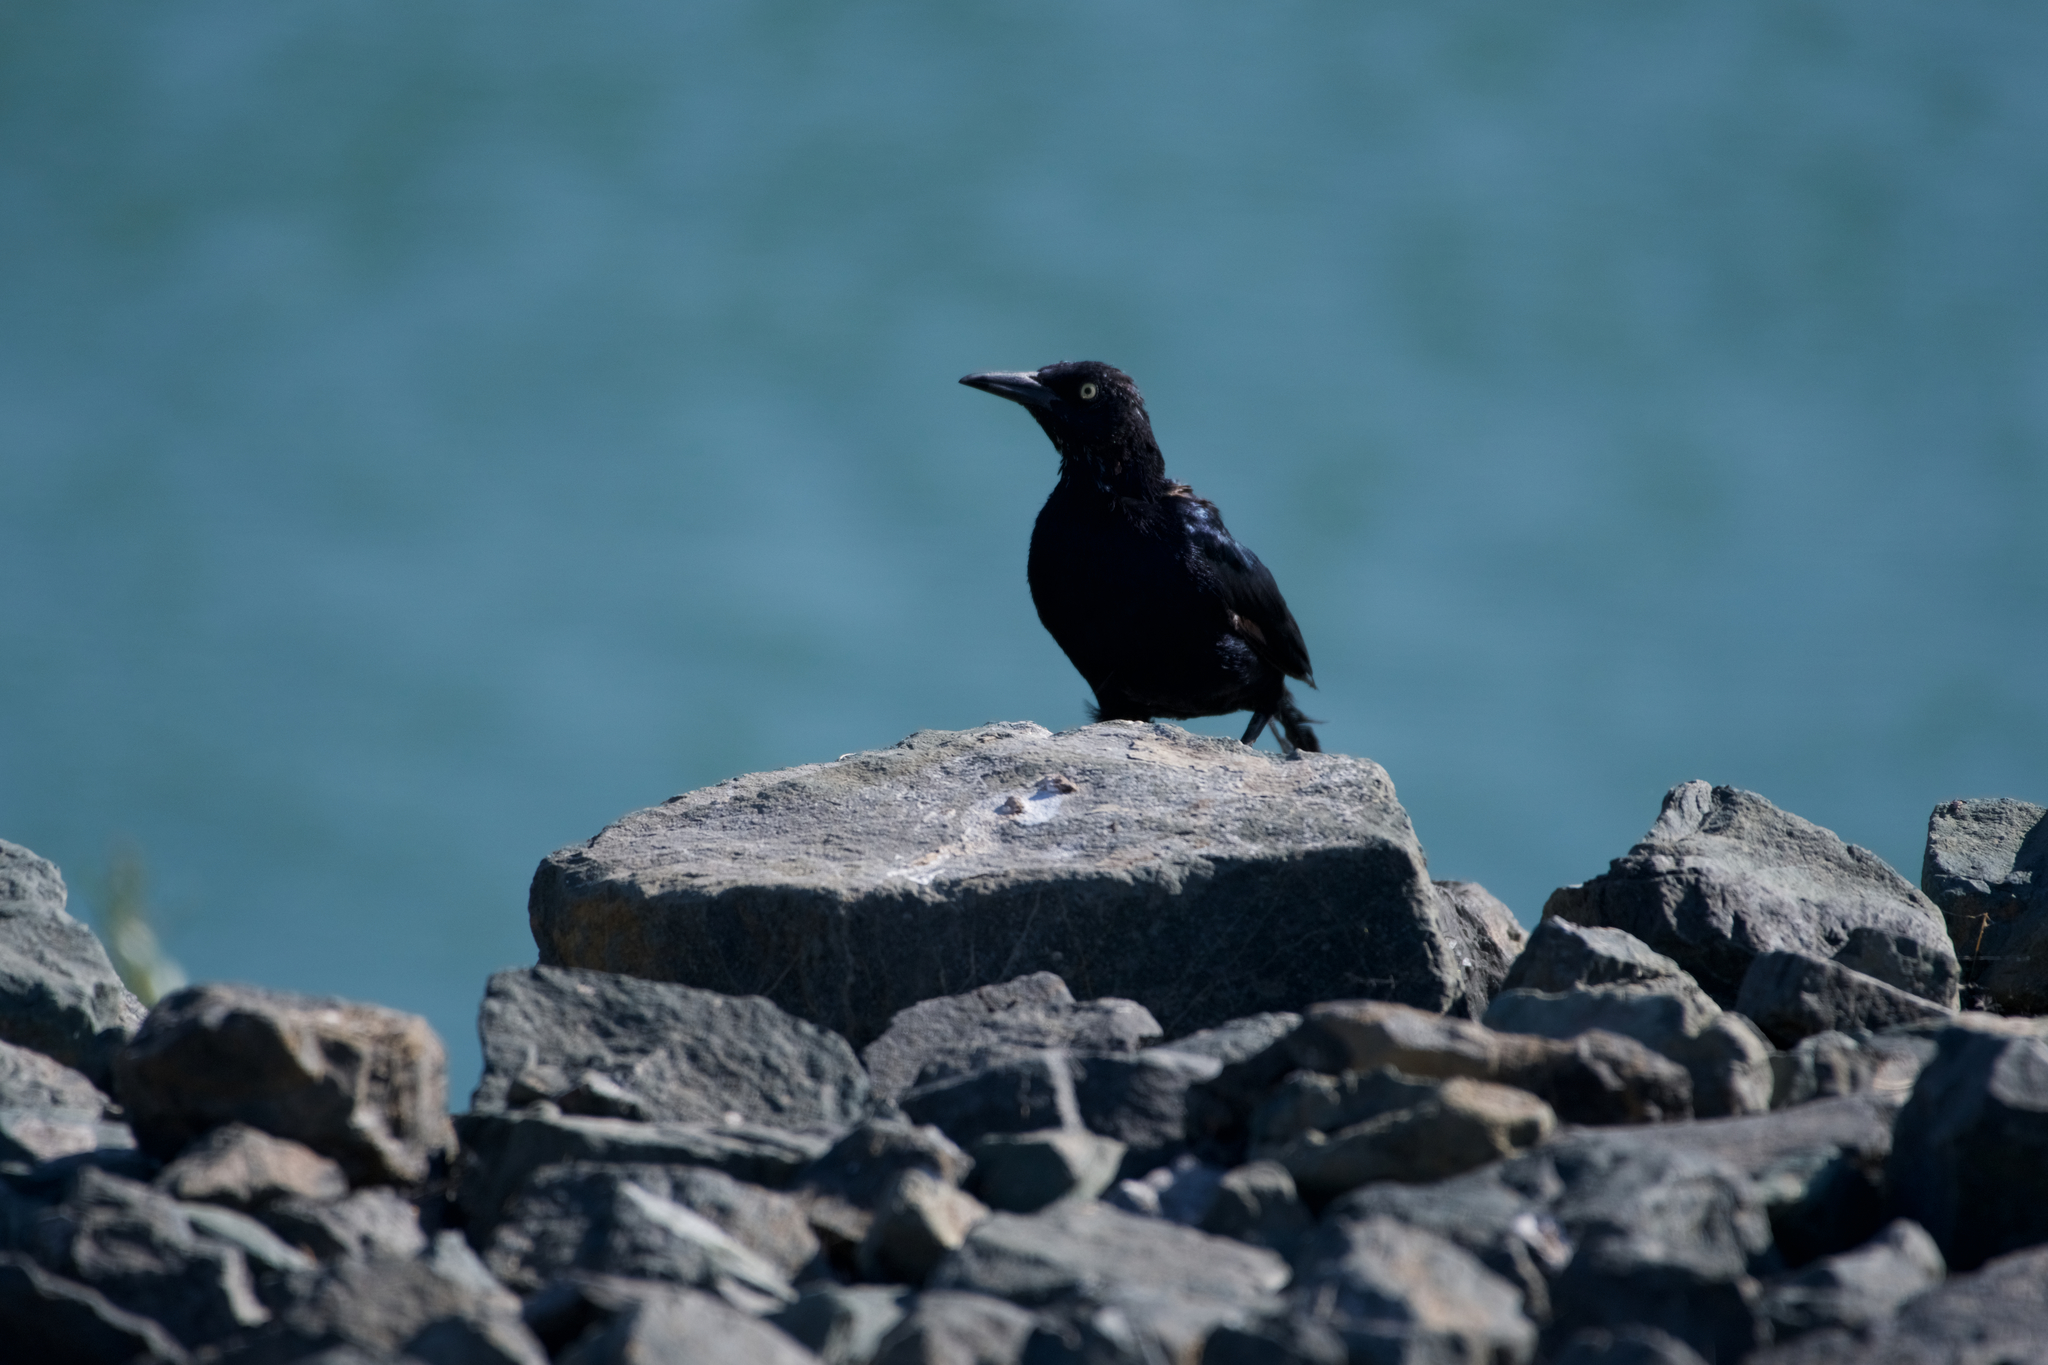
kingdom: Animalia
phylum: Chordata
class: Aves
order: Passeriformes
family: Icteridae
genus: Quiscalus
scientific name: Quiscalus mexicanus
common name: Great-tailed grackle
